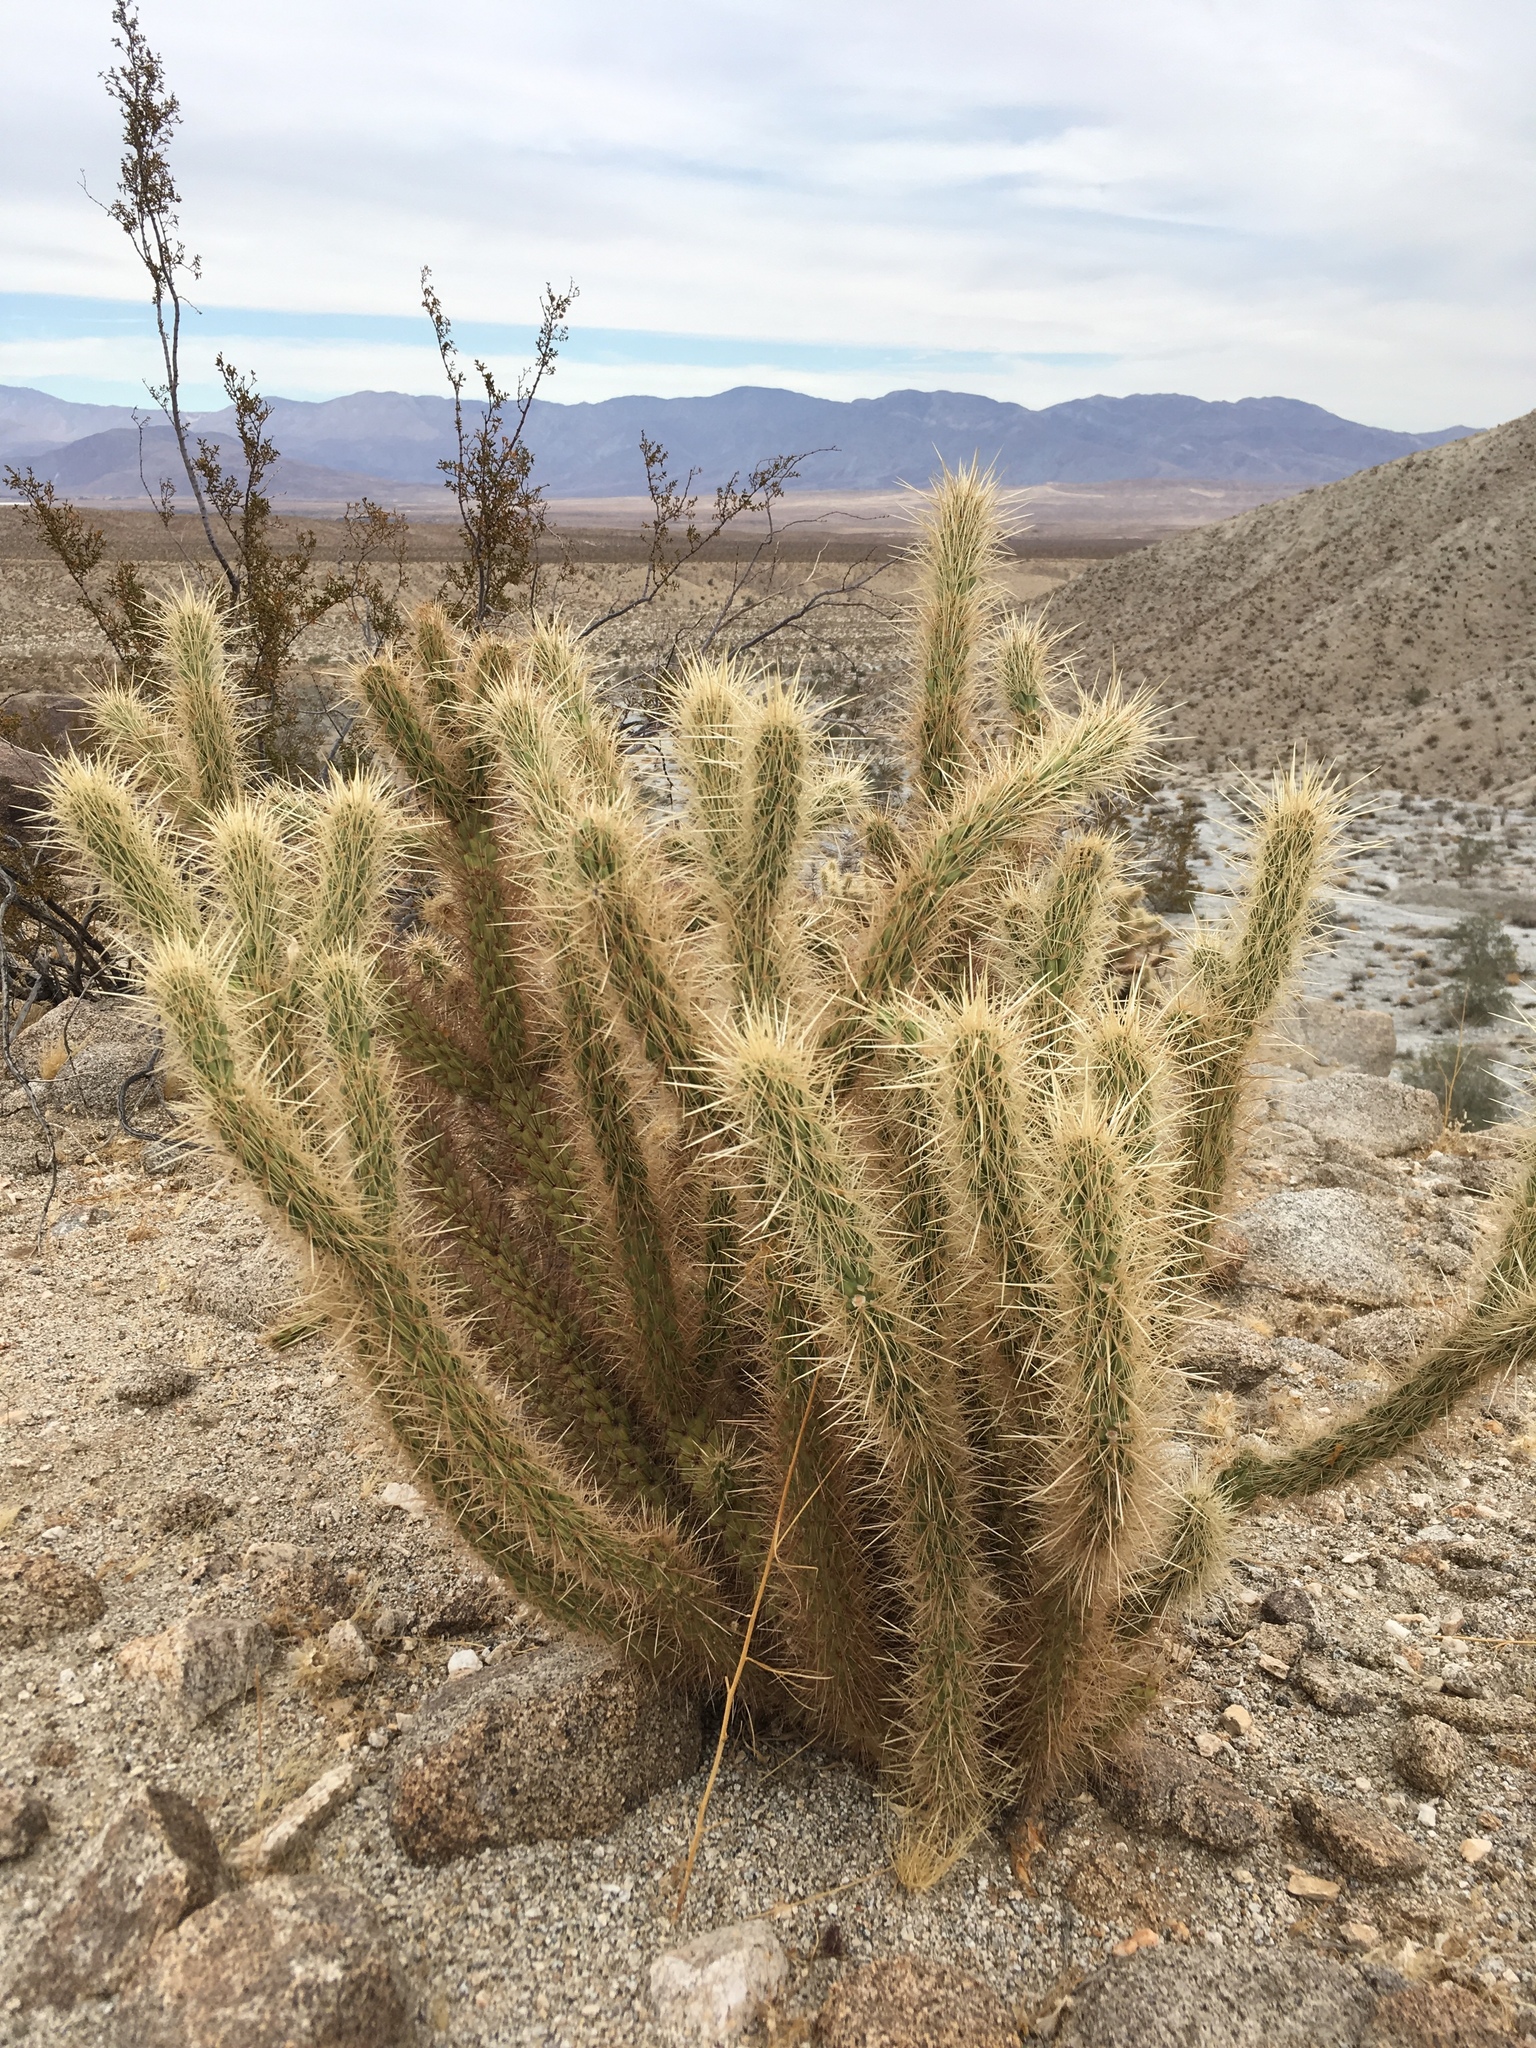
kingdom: Plantae
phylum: Tracheophyta
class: Magnoliopsida
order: Caryophyllales
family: Cactaceae
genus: Cylindropuntia
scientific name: Cylindropuntia ganderi
